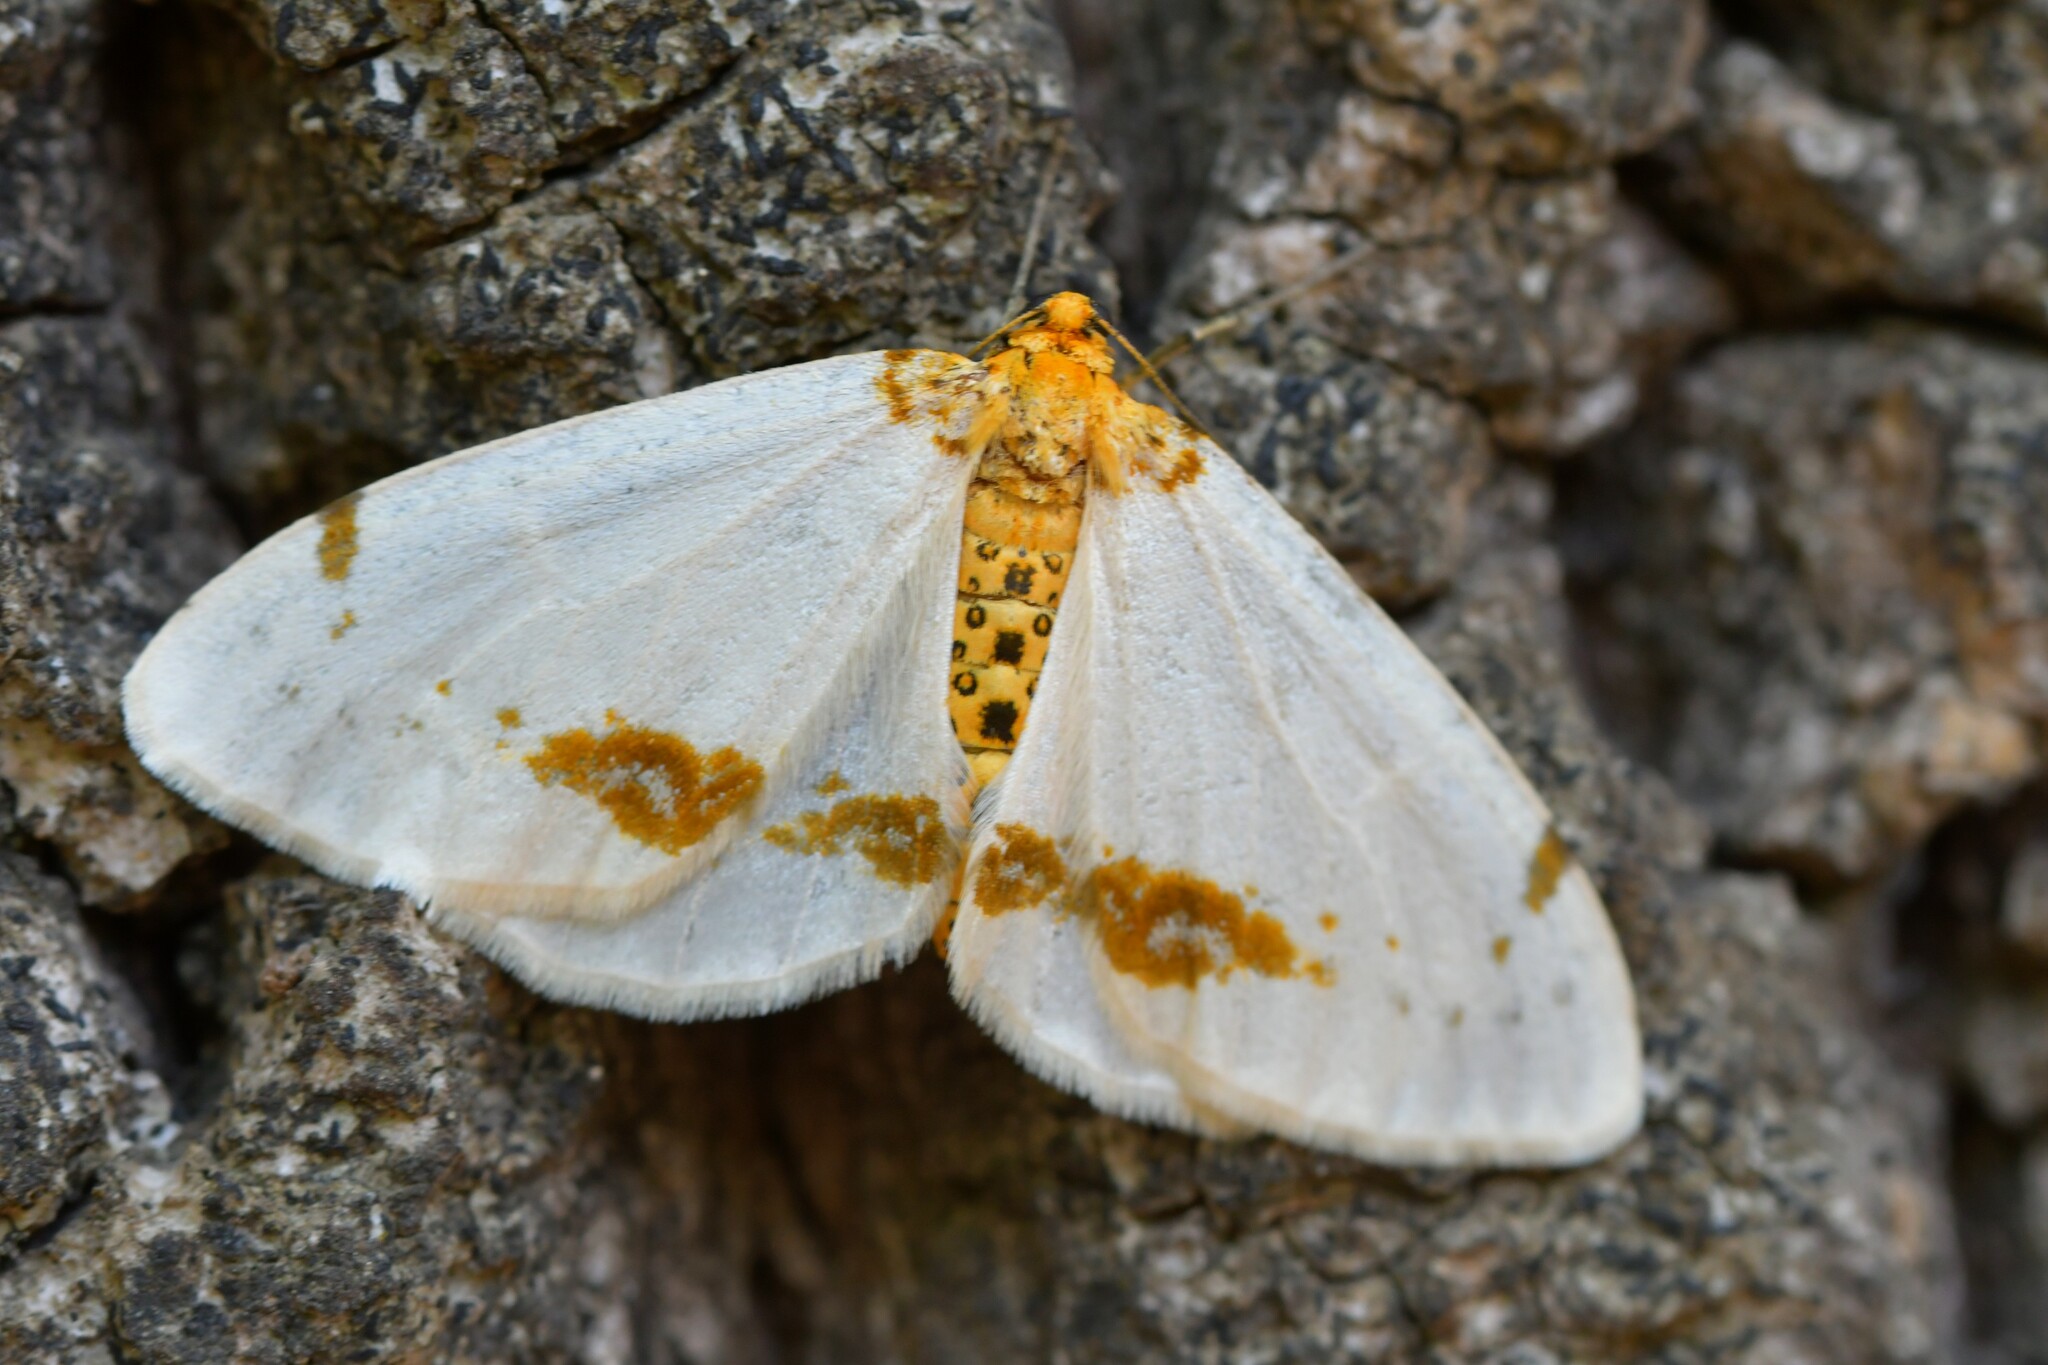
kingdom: Animalia
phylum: Arthropoda
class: Insecta
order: Lepidoptera
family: Geometridae
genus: Abraxas
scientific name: Abraxas pantaria
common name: Light magpie
